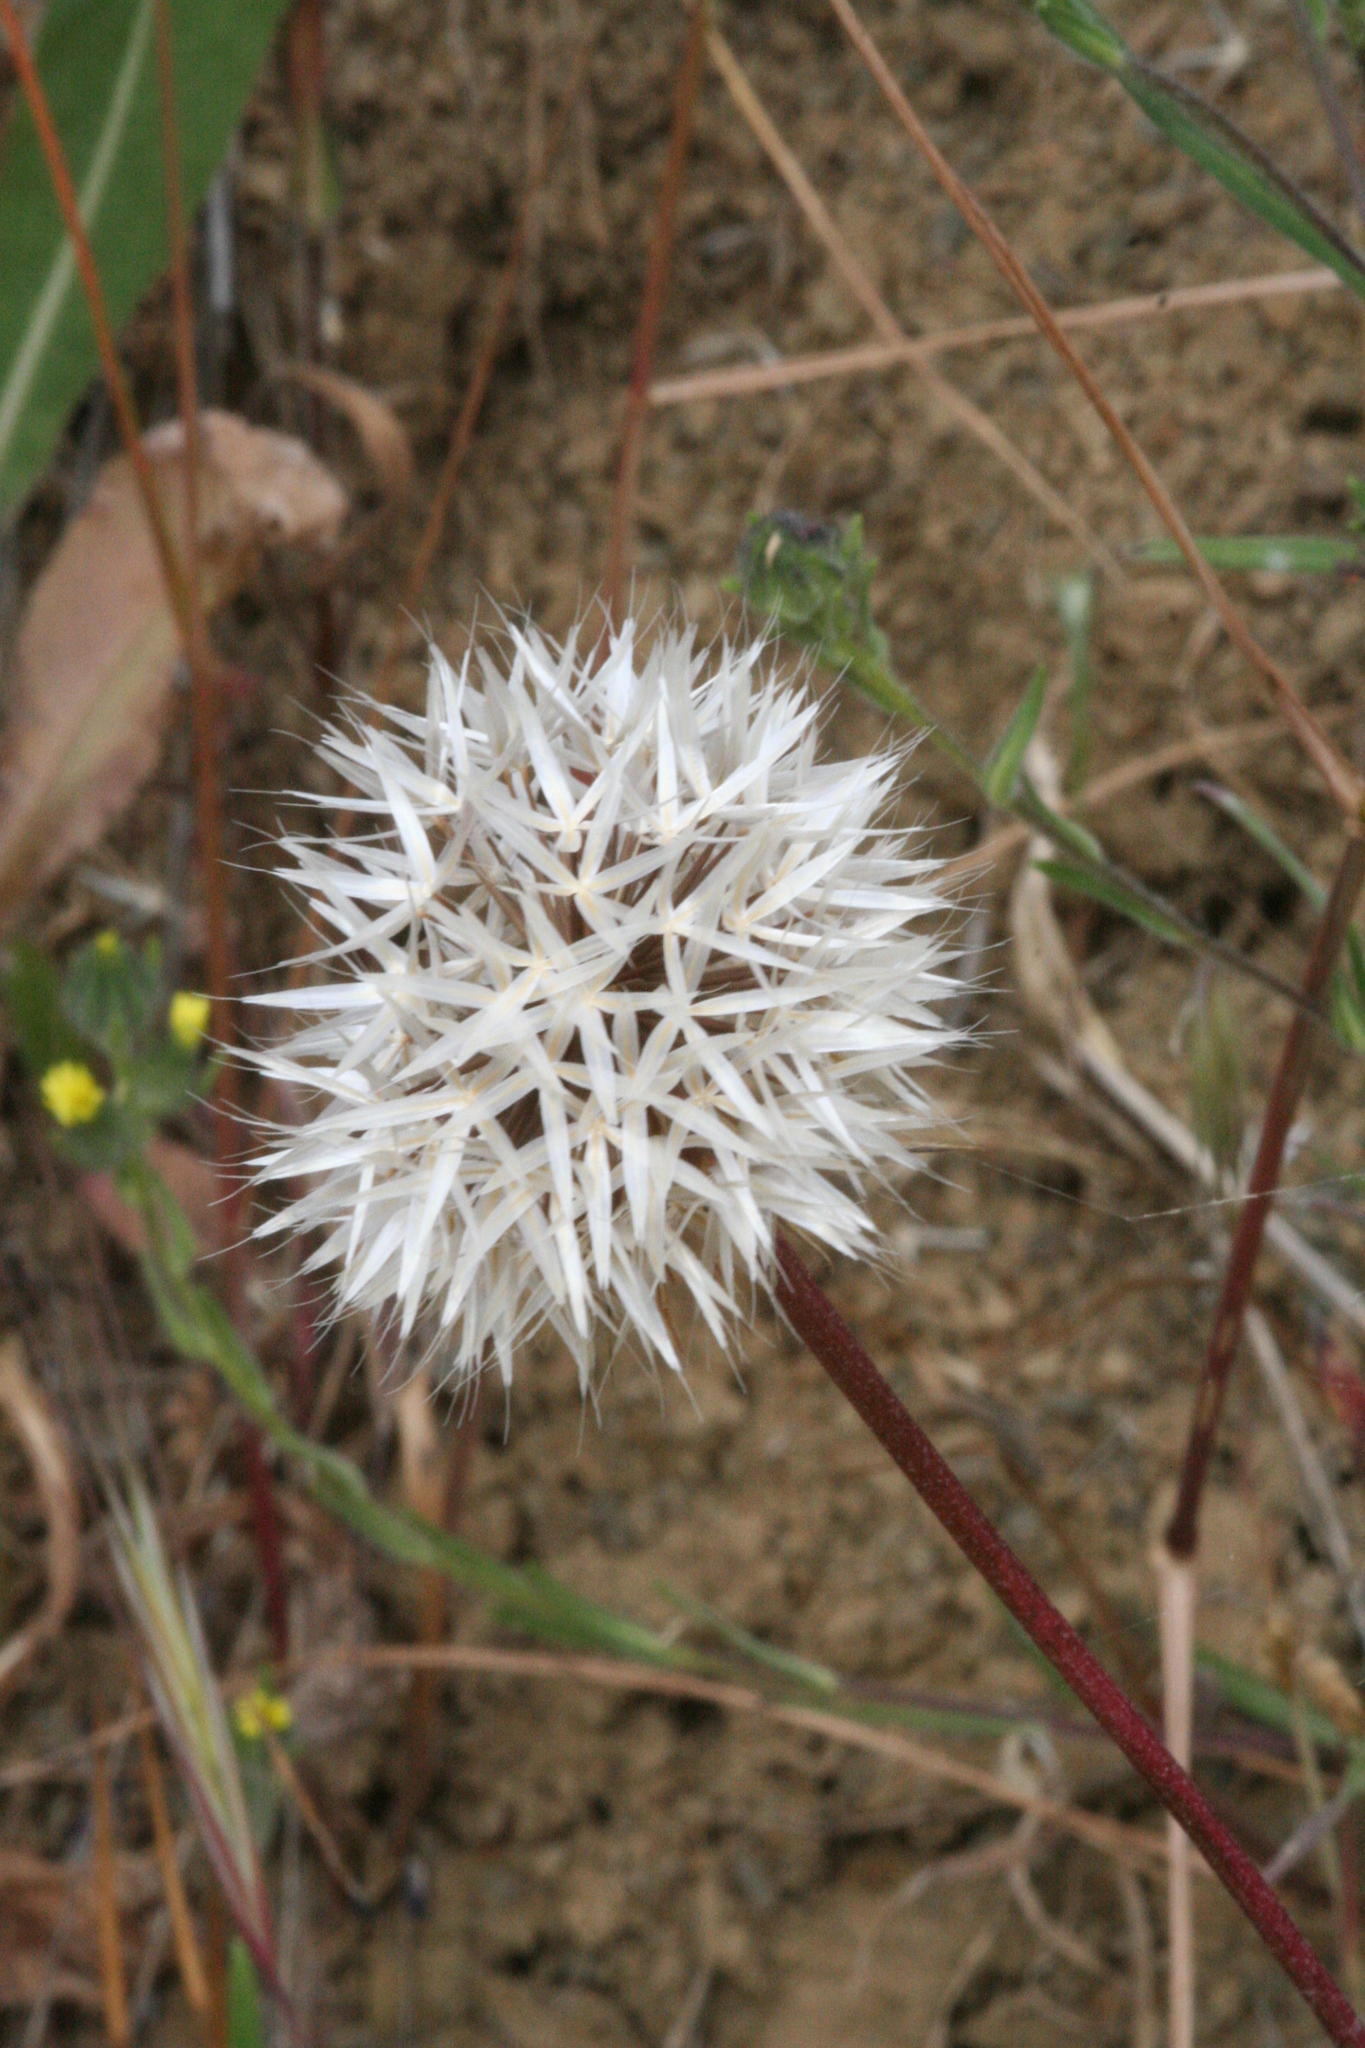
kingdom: Plantae
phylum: Tracheophyta
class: Magnoliopsida
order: Asterales
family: Asteraceae
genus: Microseris
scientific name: Microseris lindleyi
